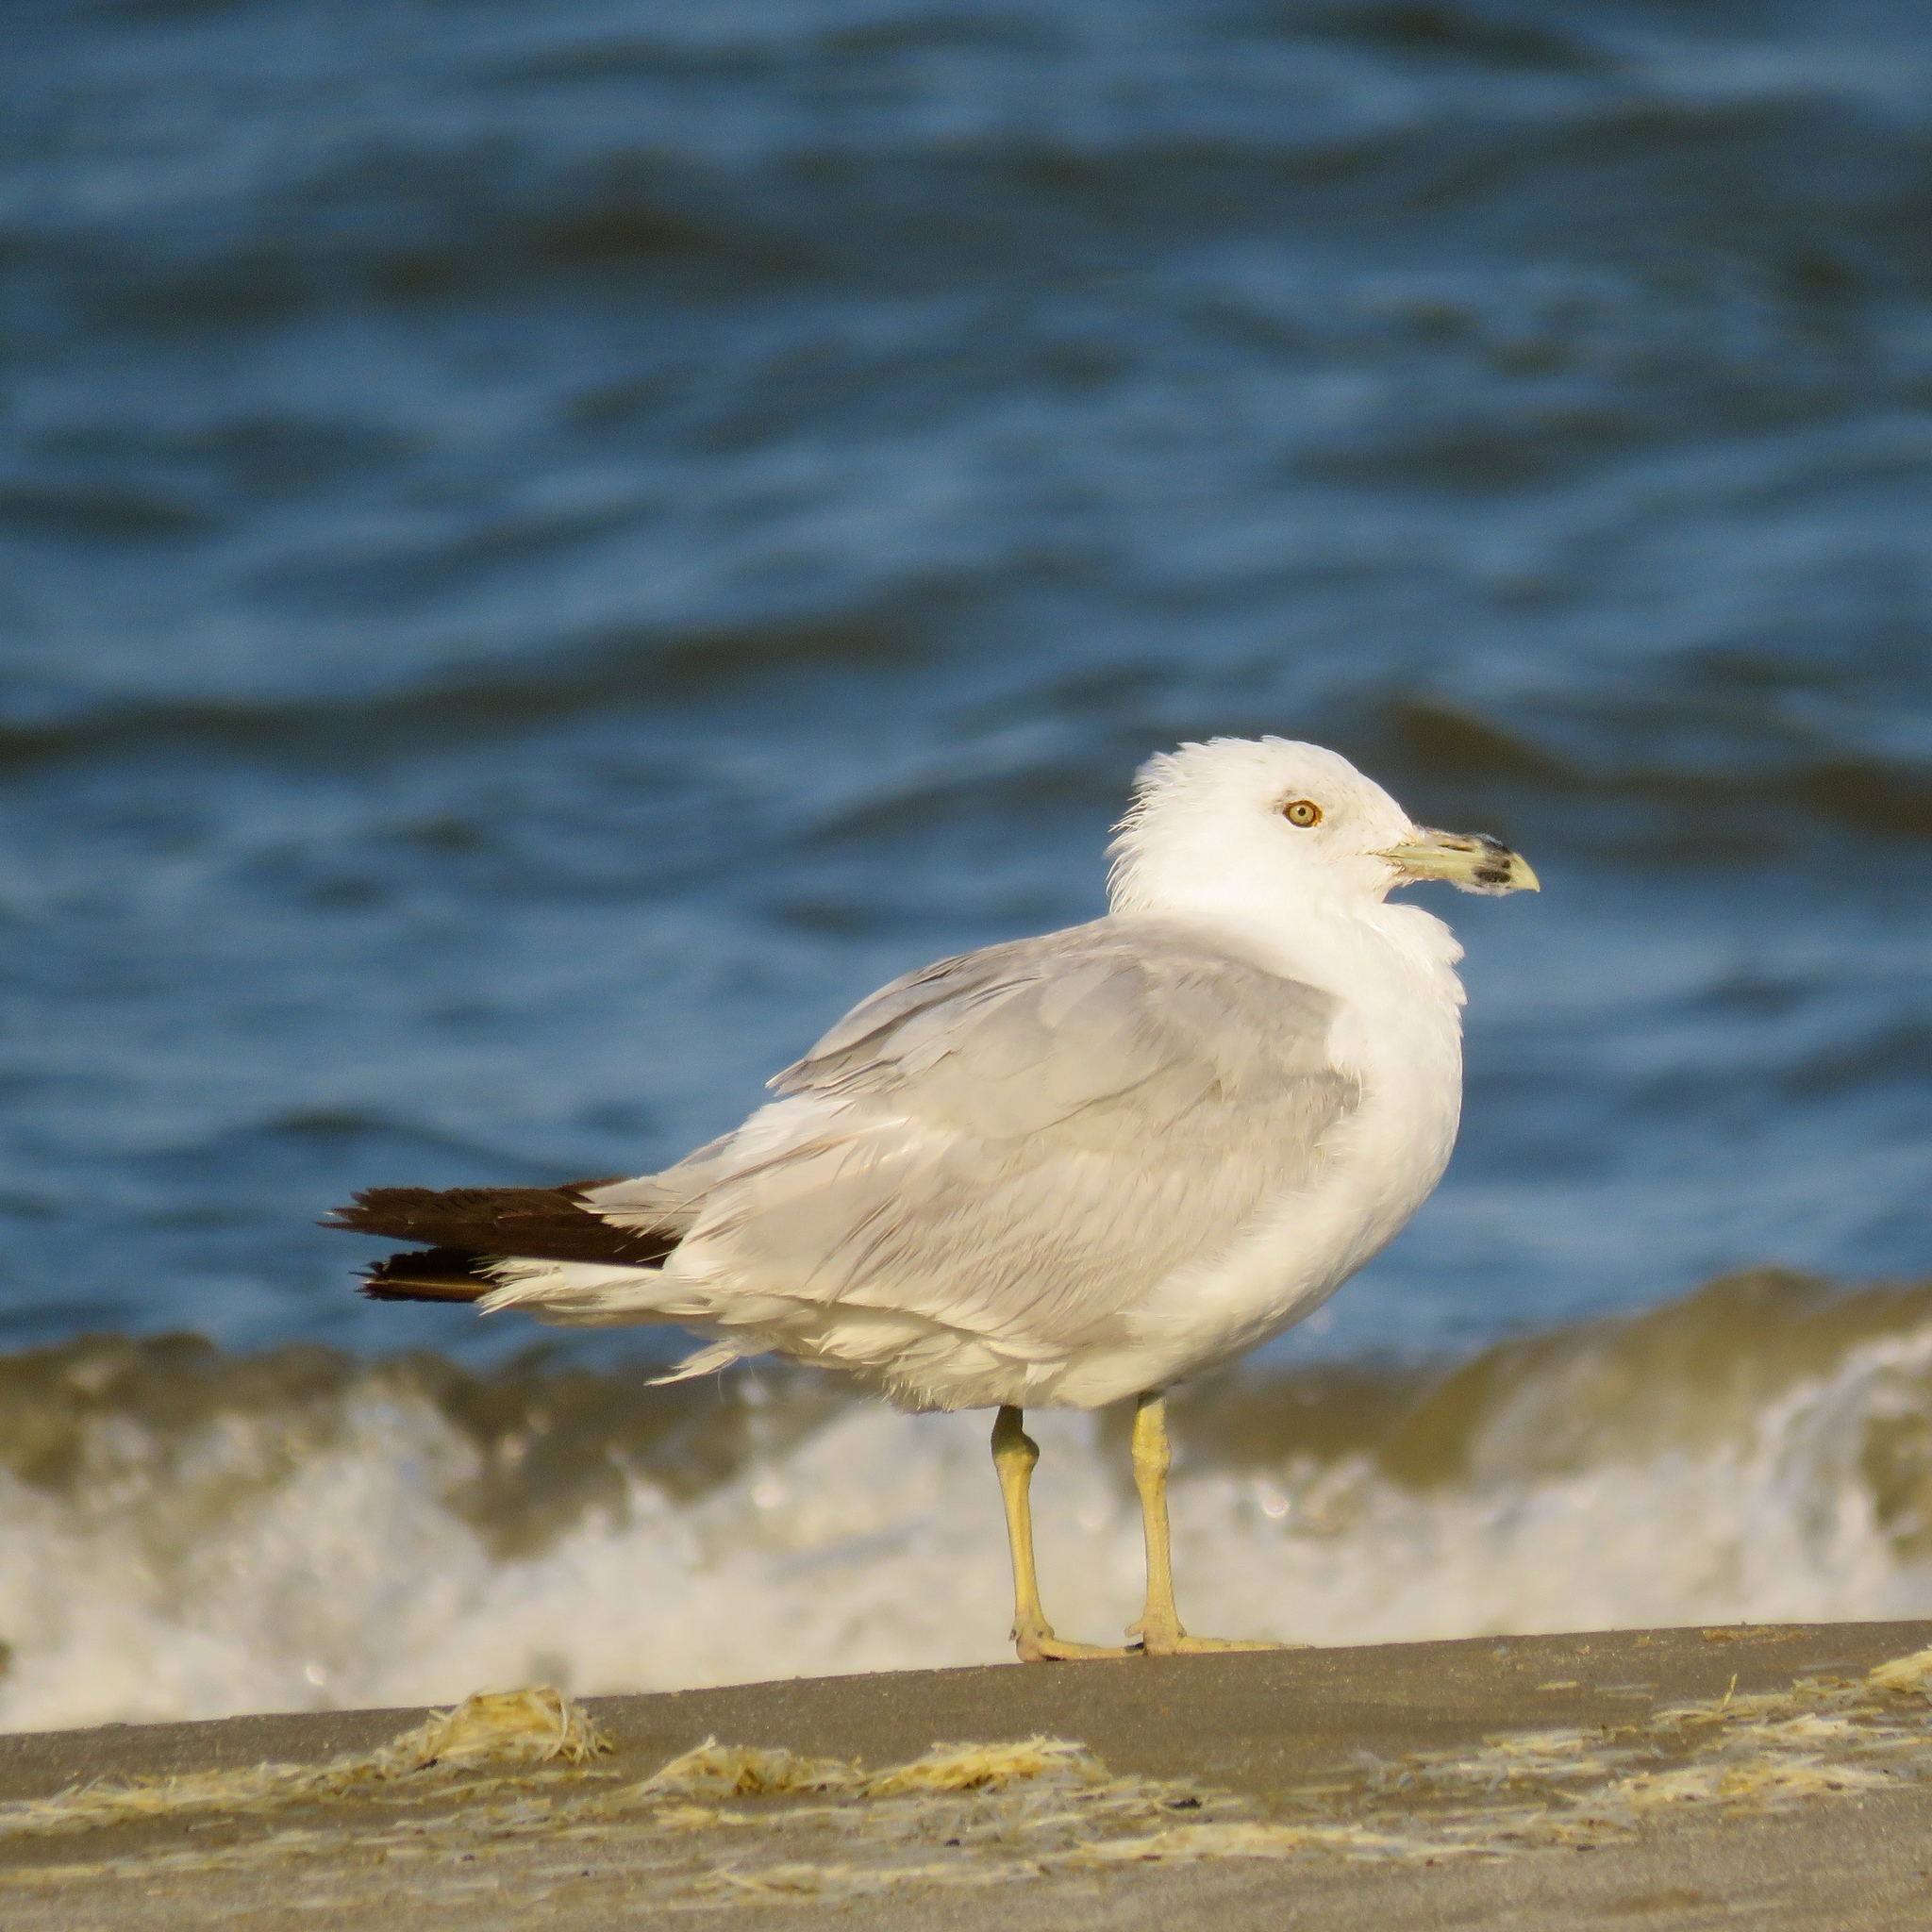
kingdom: Animalia
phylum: Chordata
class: Aves
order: Charadriiformes
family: Laridae
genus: Larus
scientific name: Larus delawarensis
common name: Ring-billed gull
